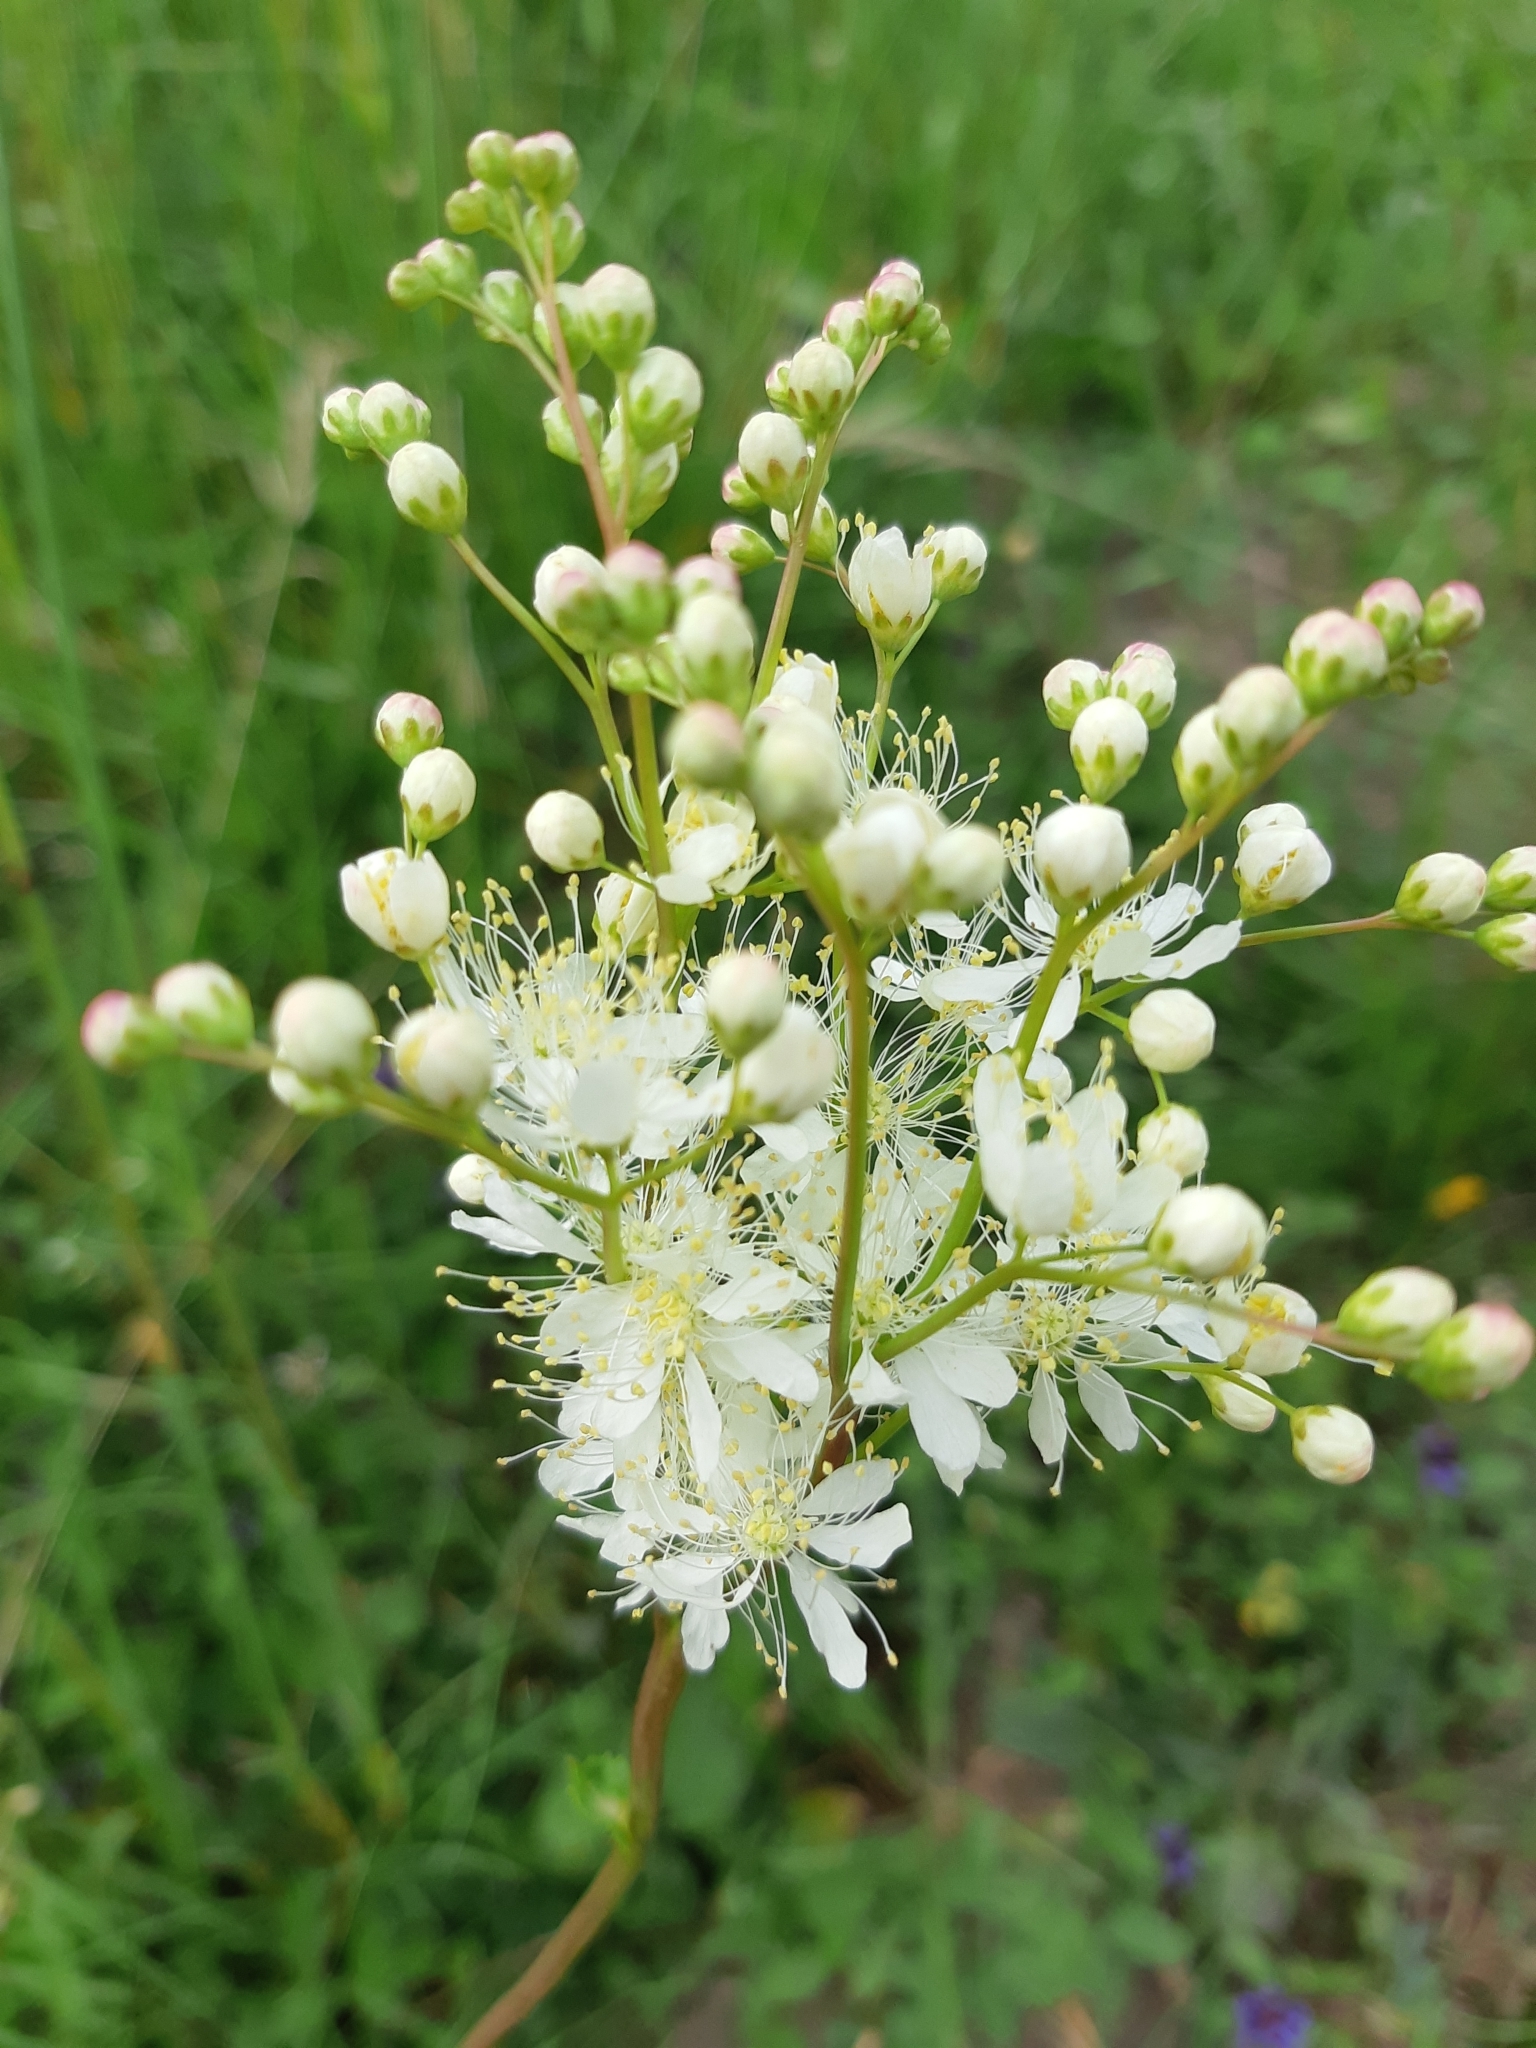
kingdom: Plantae
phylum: Tracheophyta
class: Magnoliopsida
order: Rosales
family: Rosaceae
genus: Filipendula
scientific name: Filipendula vulgaris
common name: Dropwort
